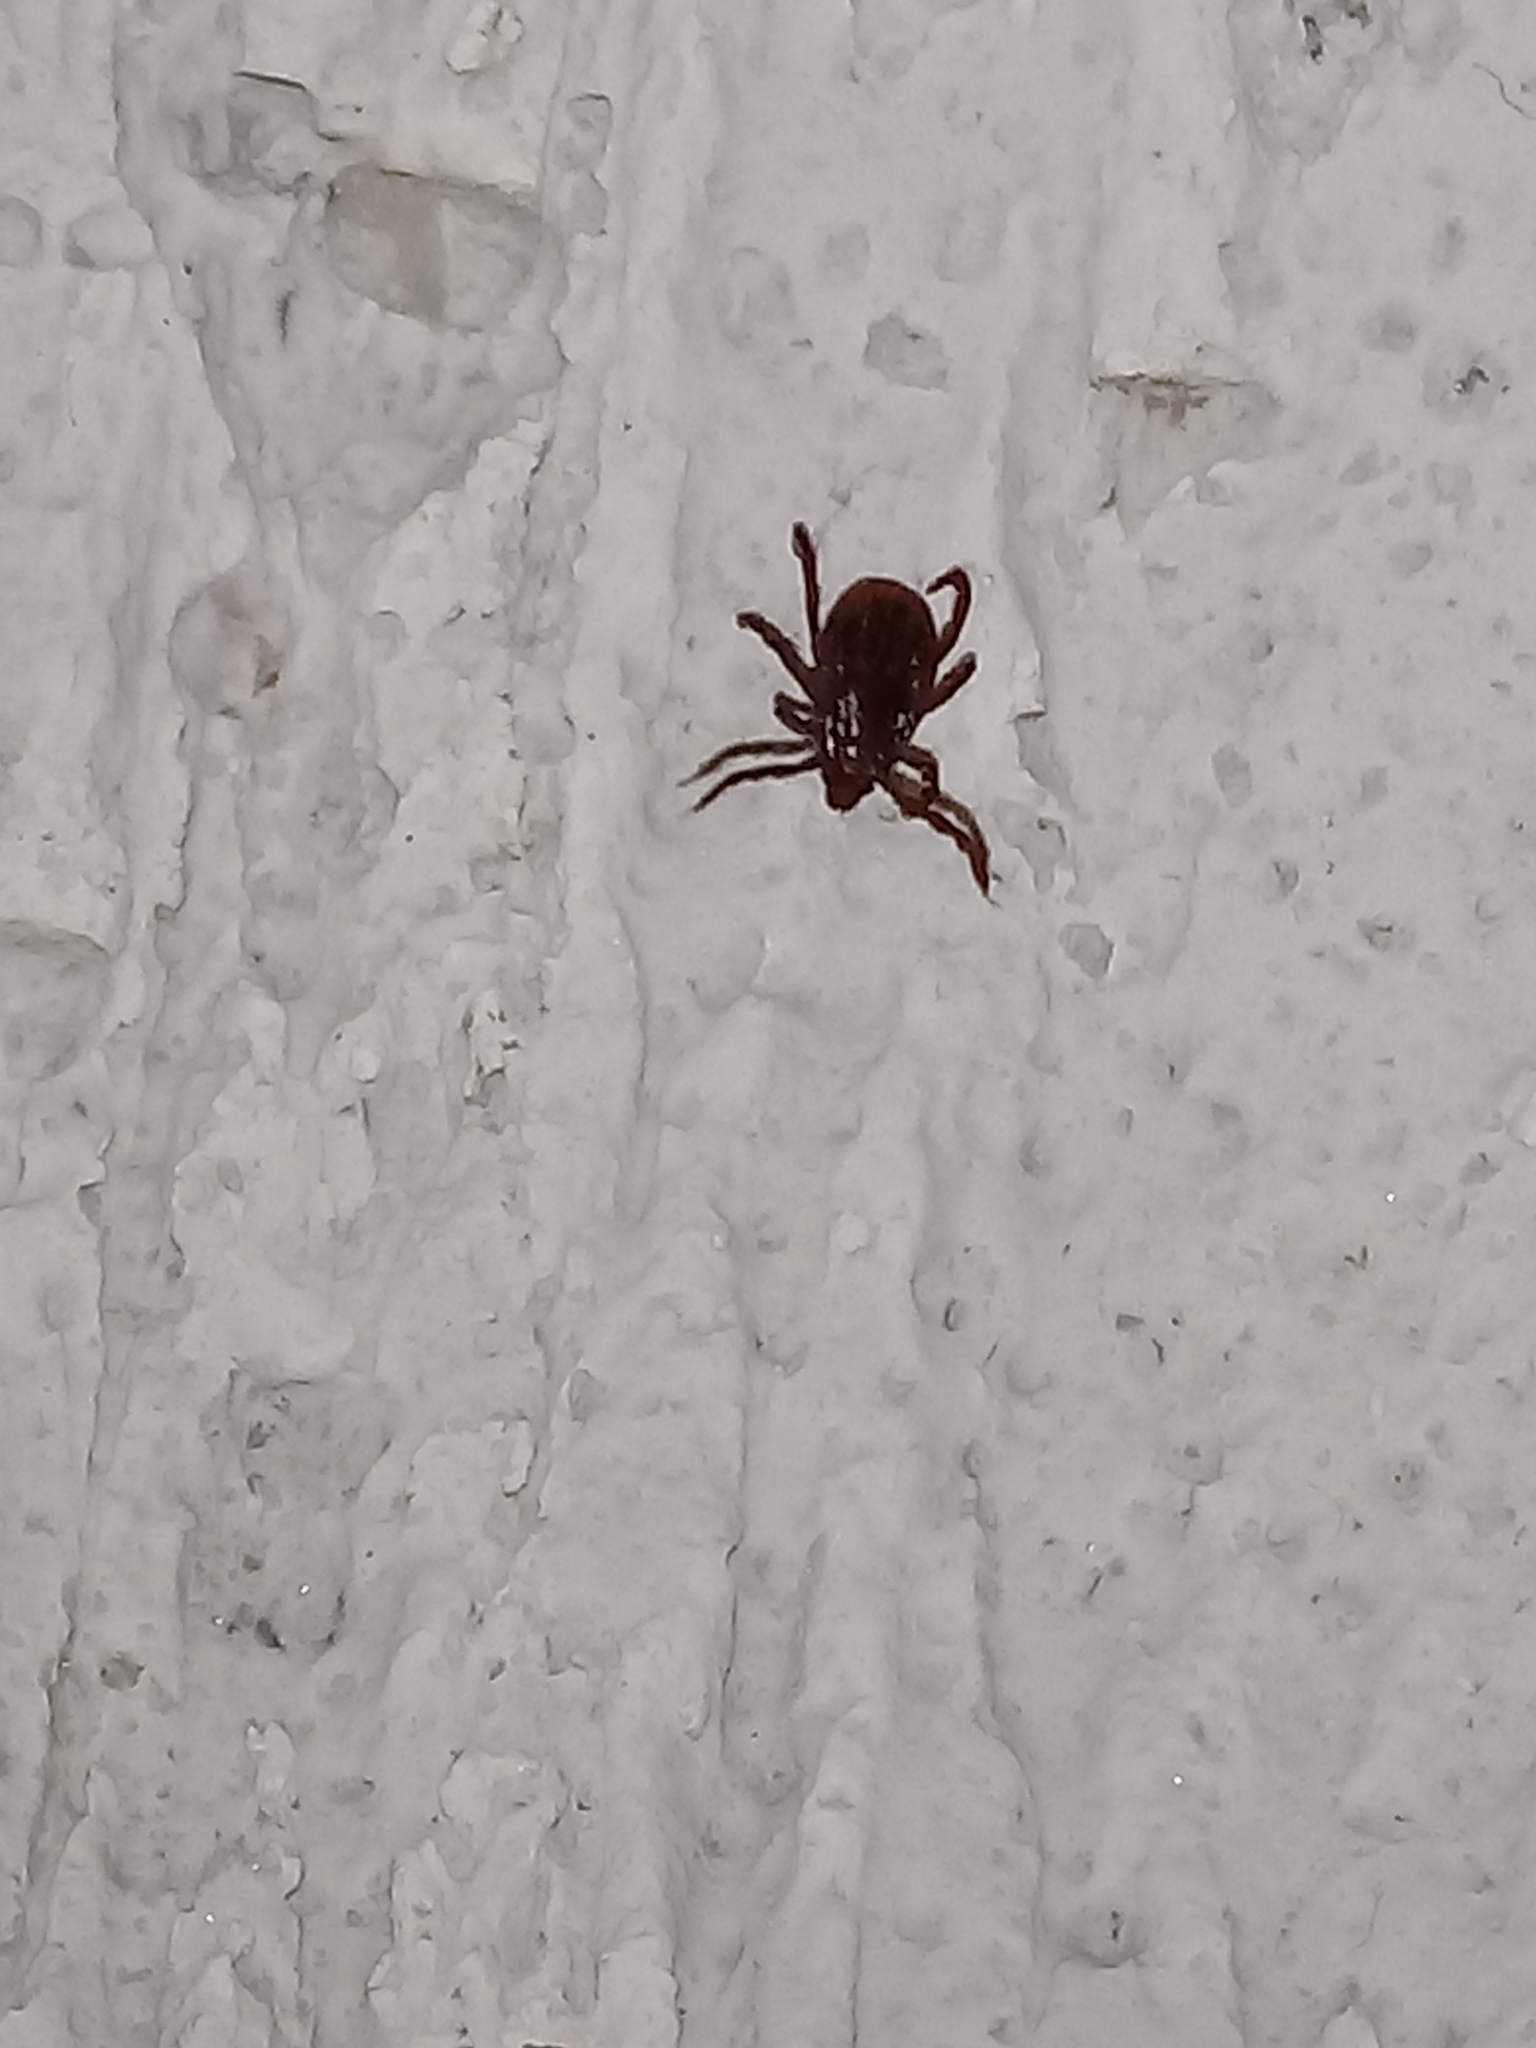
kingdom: Animalia
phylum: Arthropoda
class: Arachnida
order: Ixodida
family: Ixodidae
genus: Rhipicephalus
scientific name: Rhipicephalus sanguineus
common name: Brown dog tick
